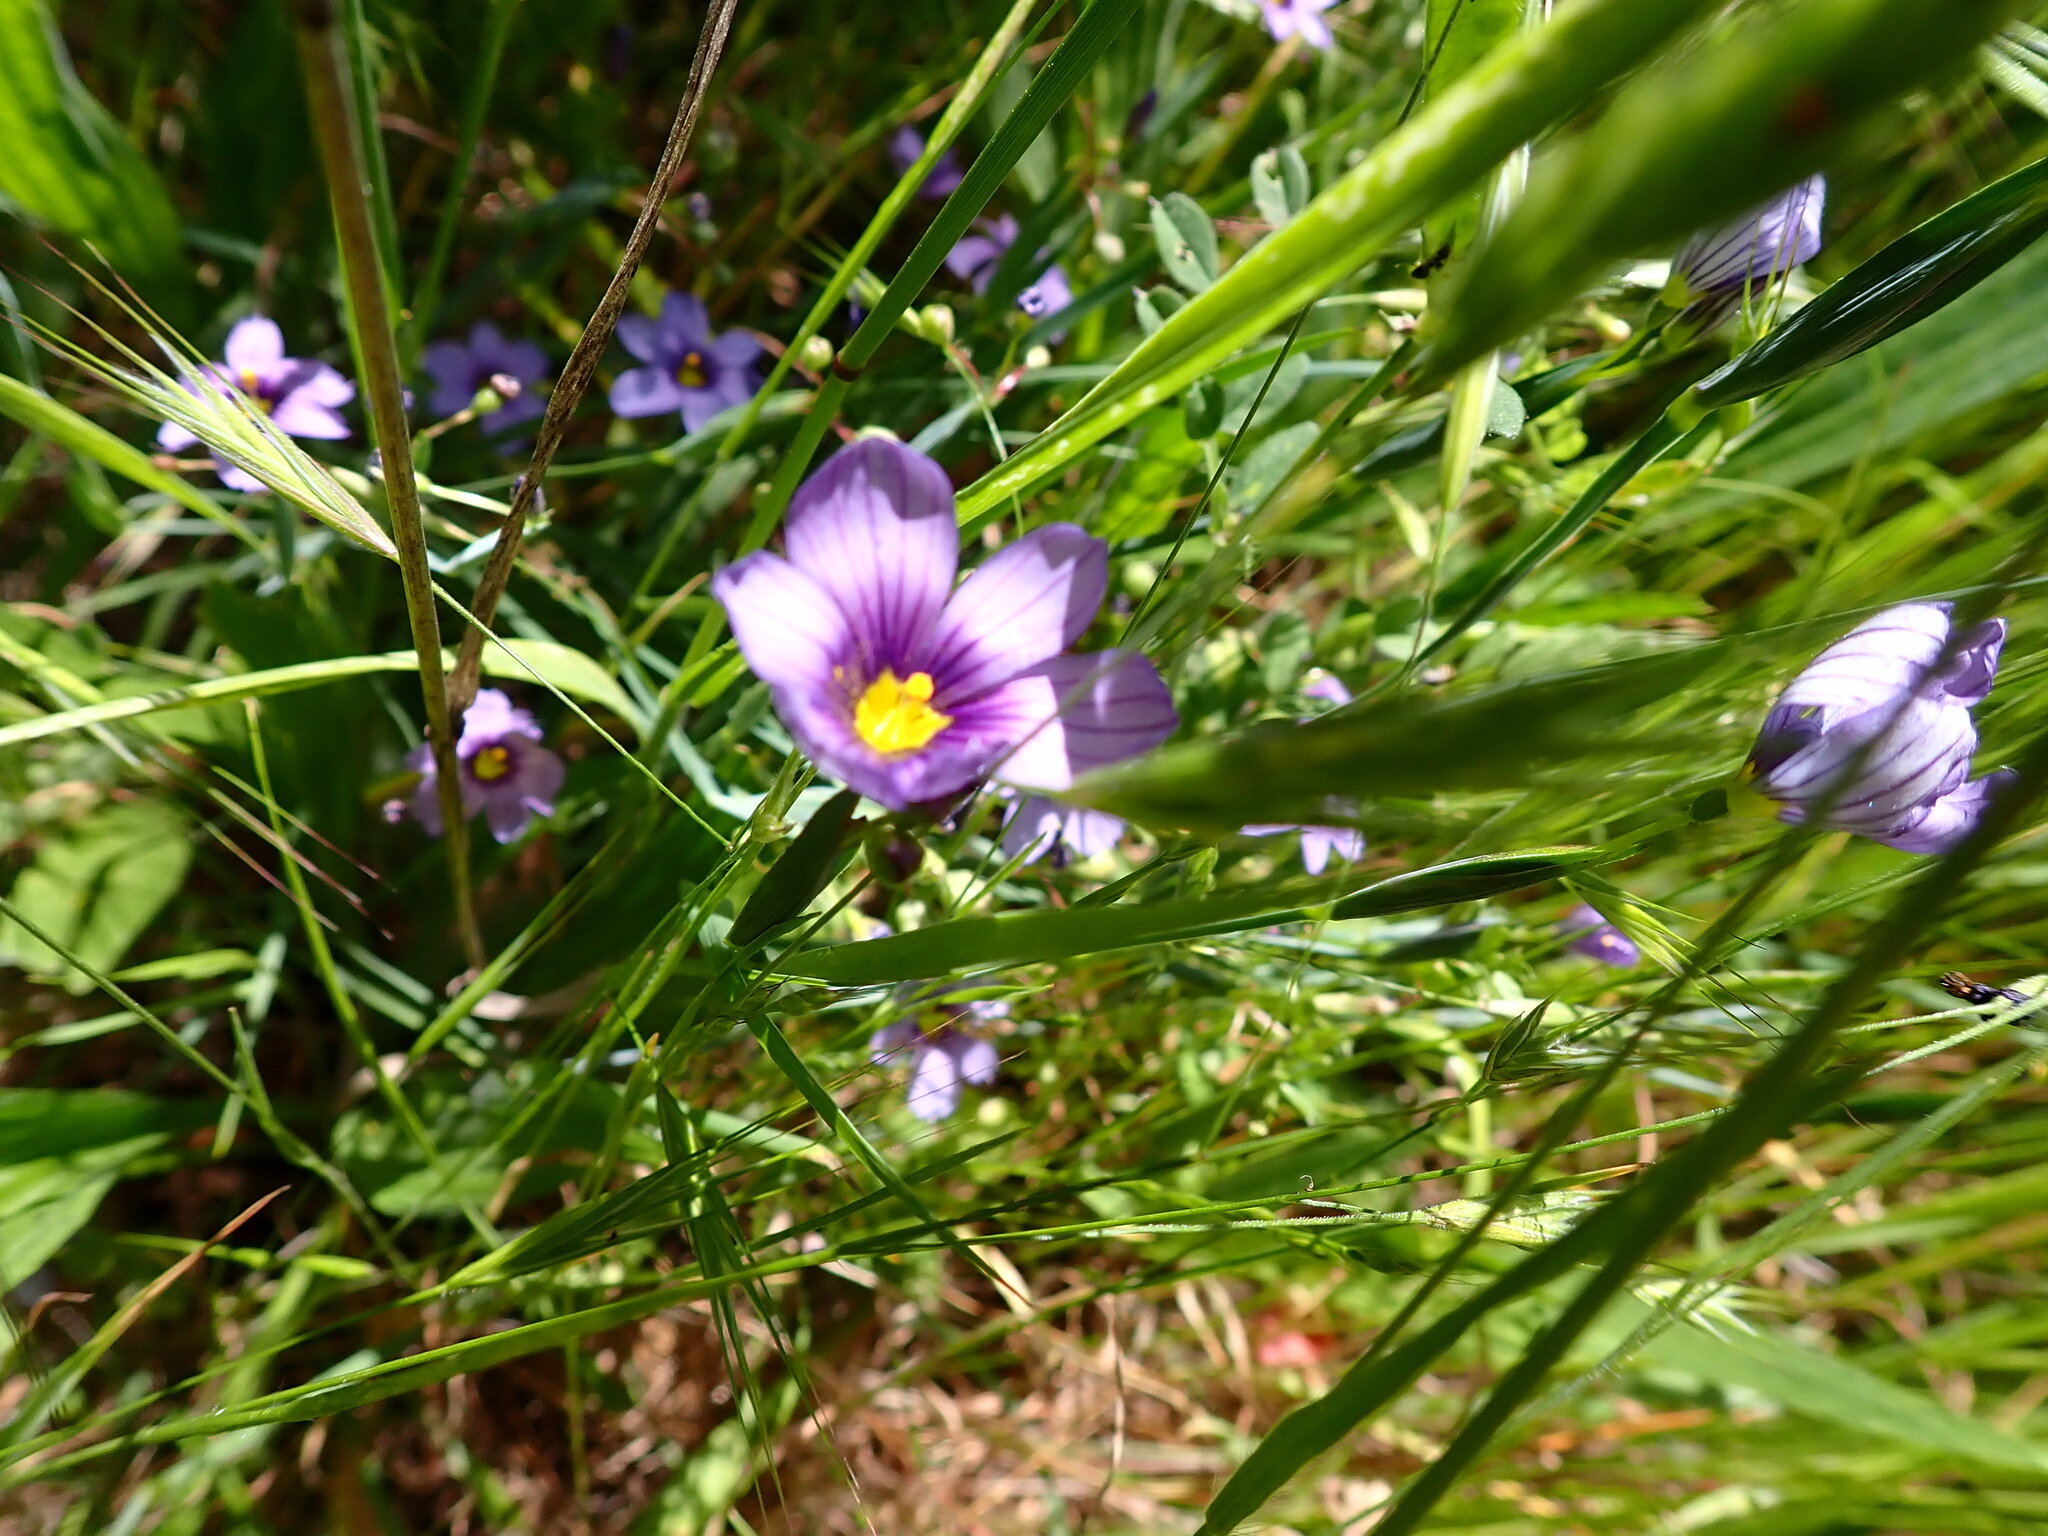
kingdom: Plantae
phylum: Tracheophyta
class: Liliopsida
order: Asparagales
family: Iridaceae
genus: Sisyrinchium
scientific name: Sisyrinchium bellum
